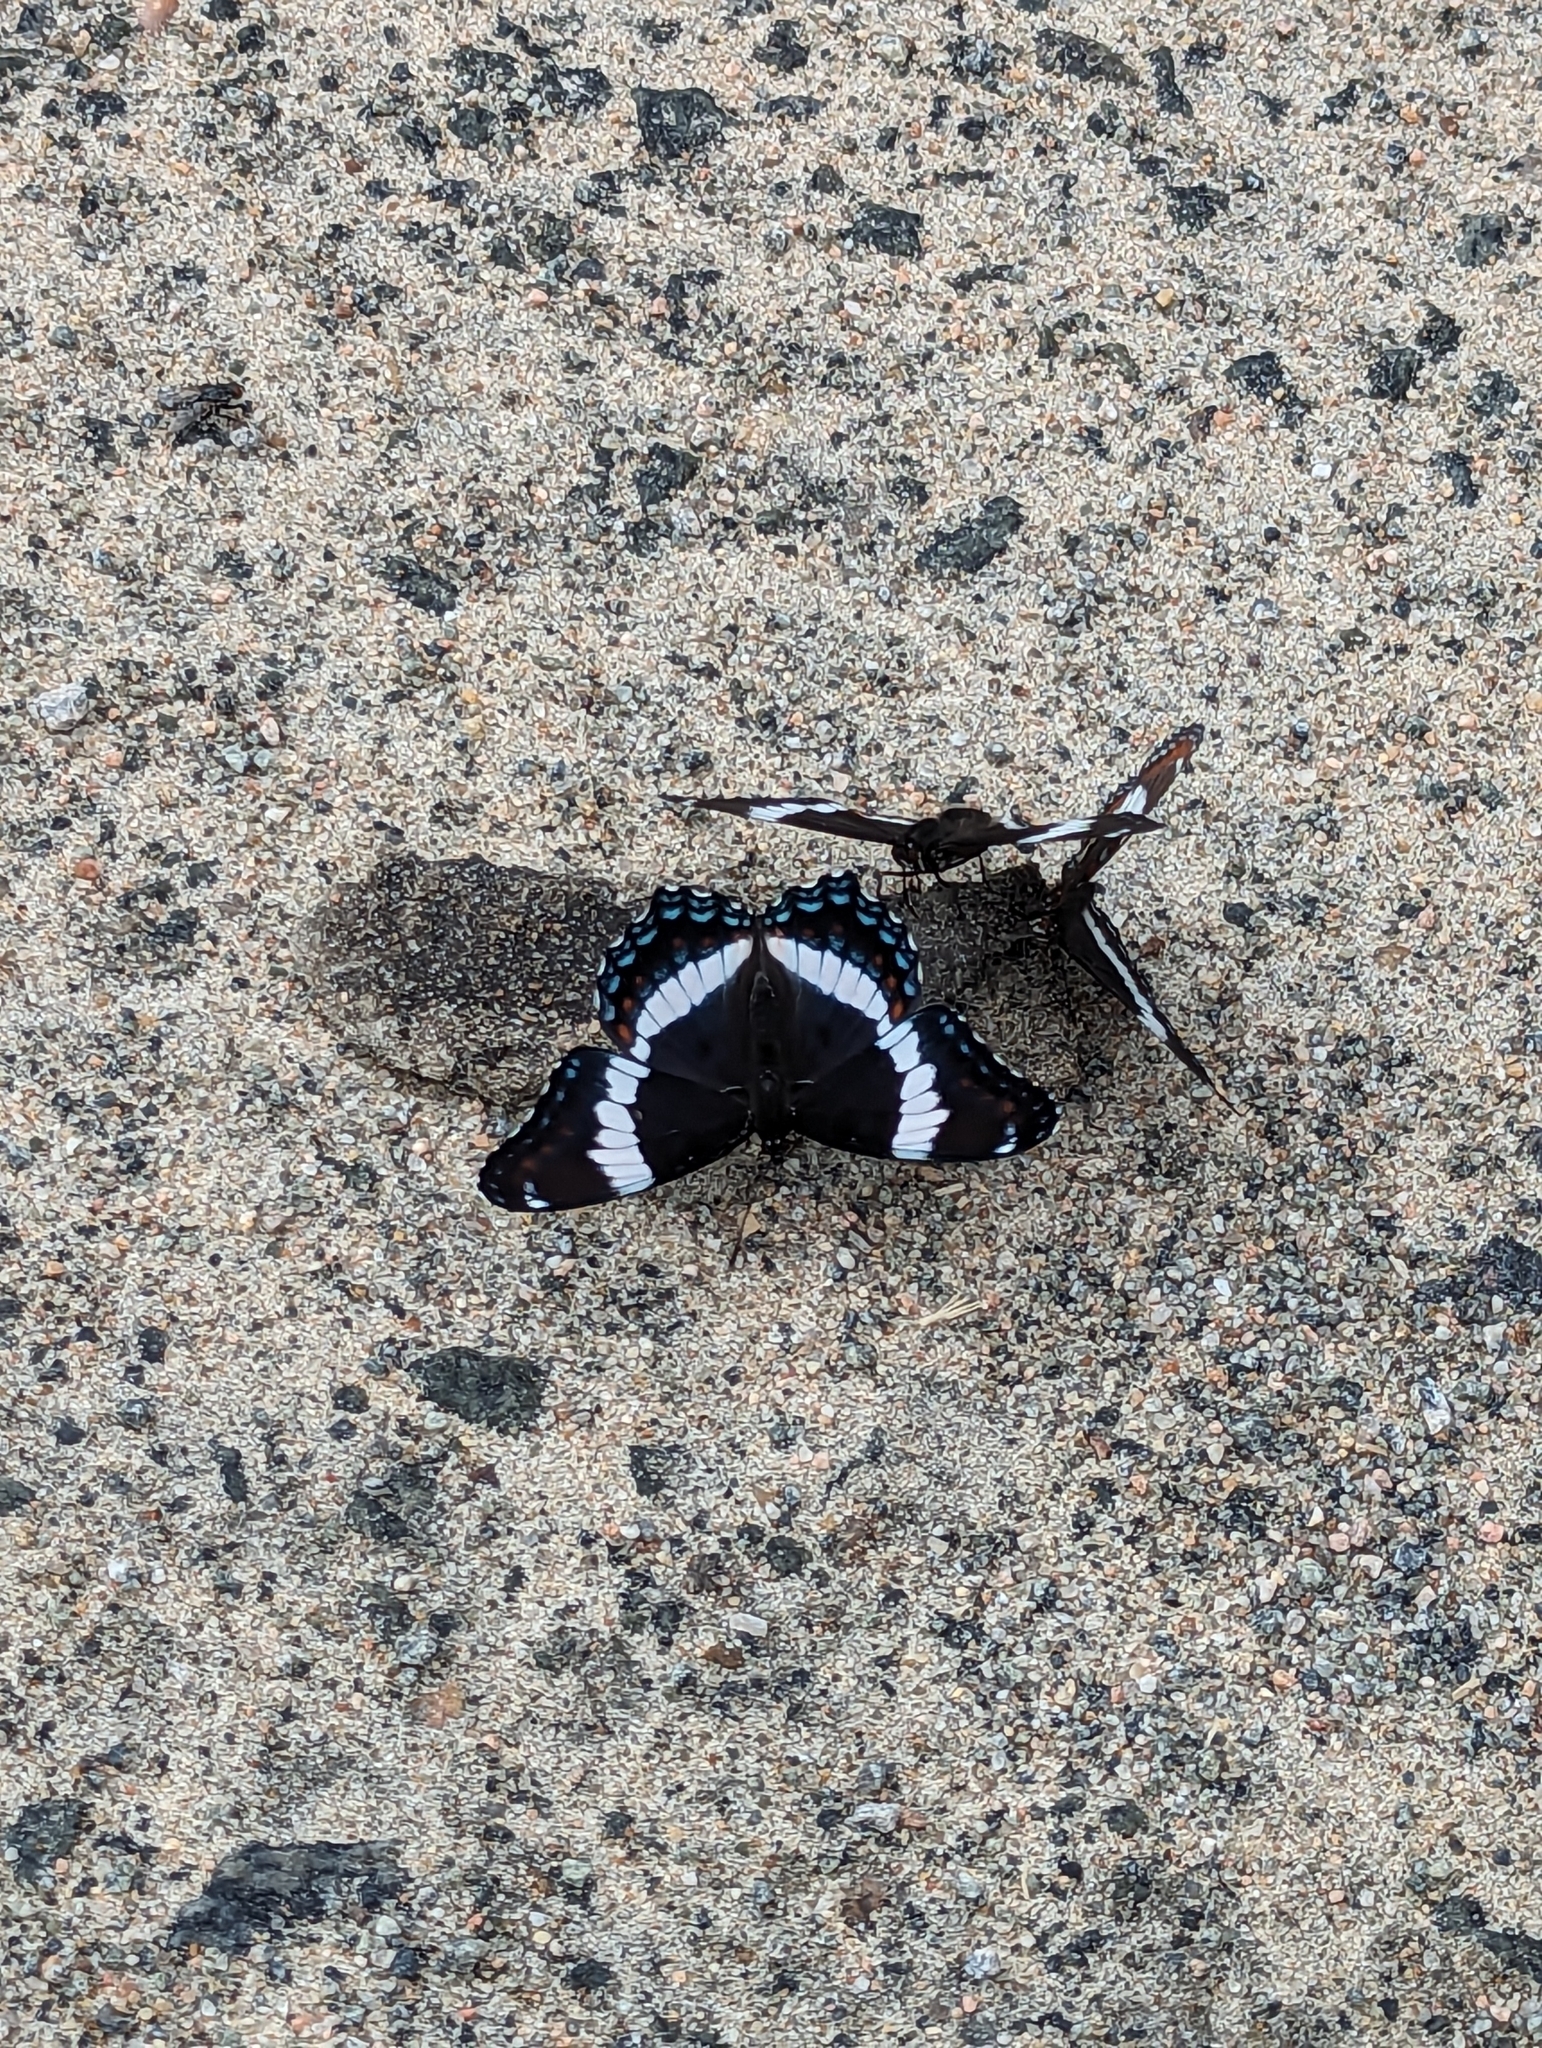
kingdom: Animalia
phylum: Arthropoda
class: Insecta
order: Lepidoptera
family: Nymphalidae
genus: Limenitis
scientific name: Limenitis arthemis
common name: Red-spotted admiral
